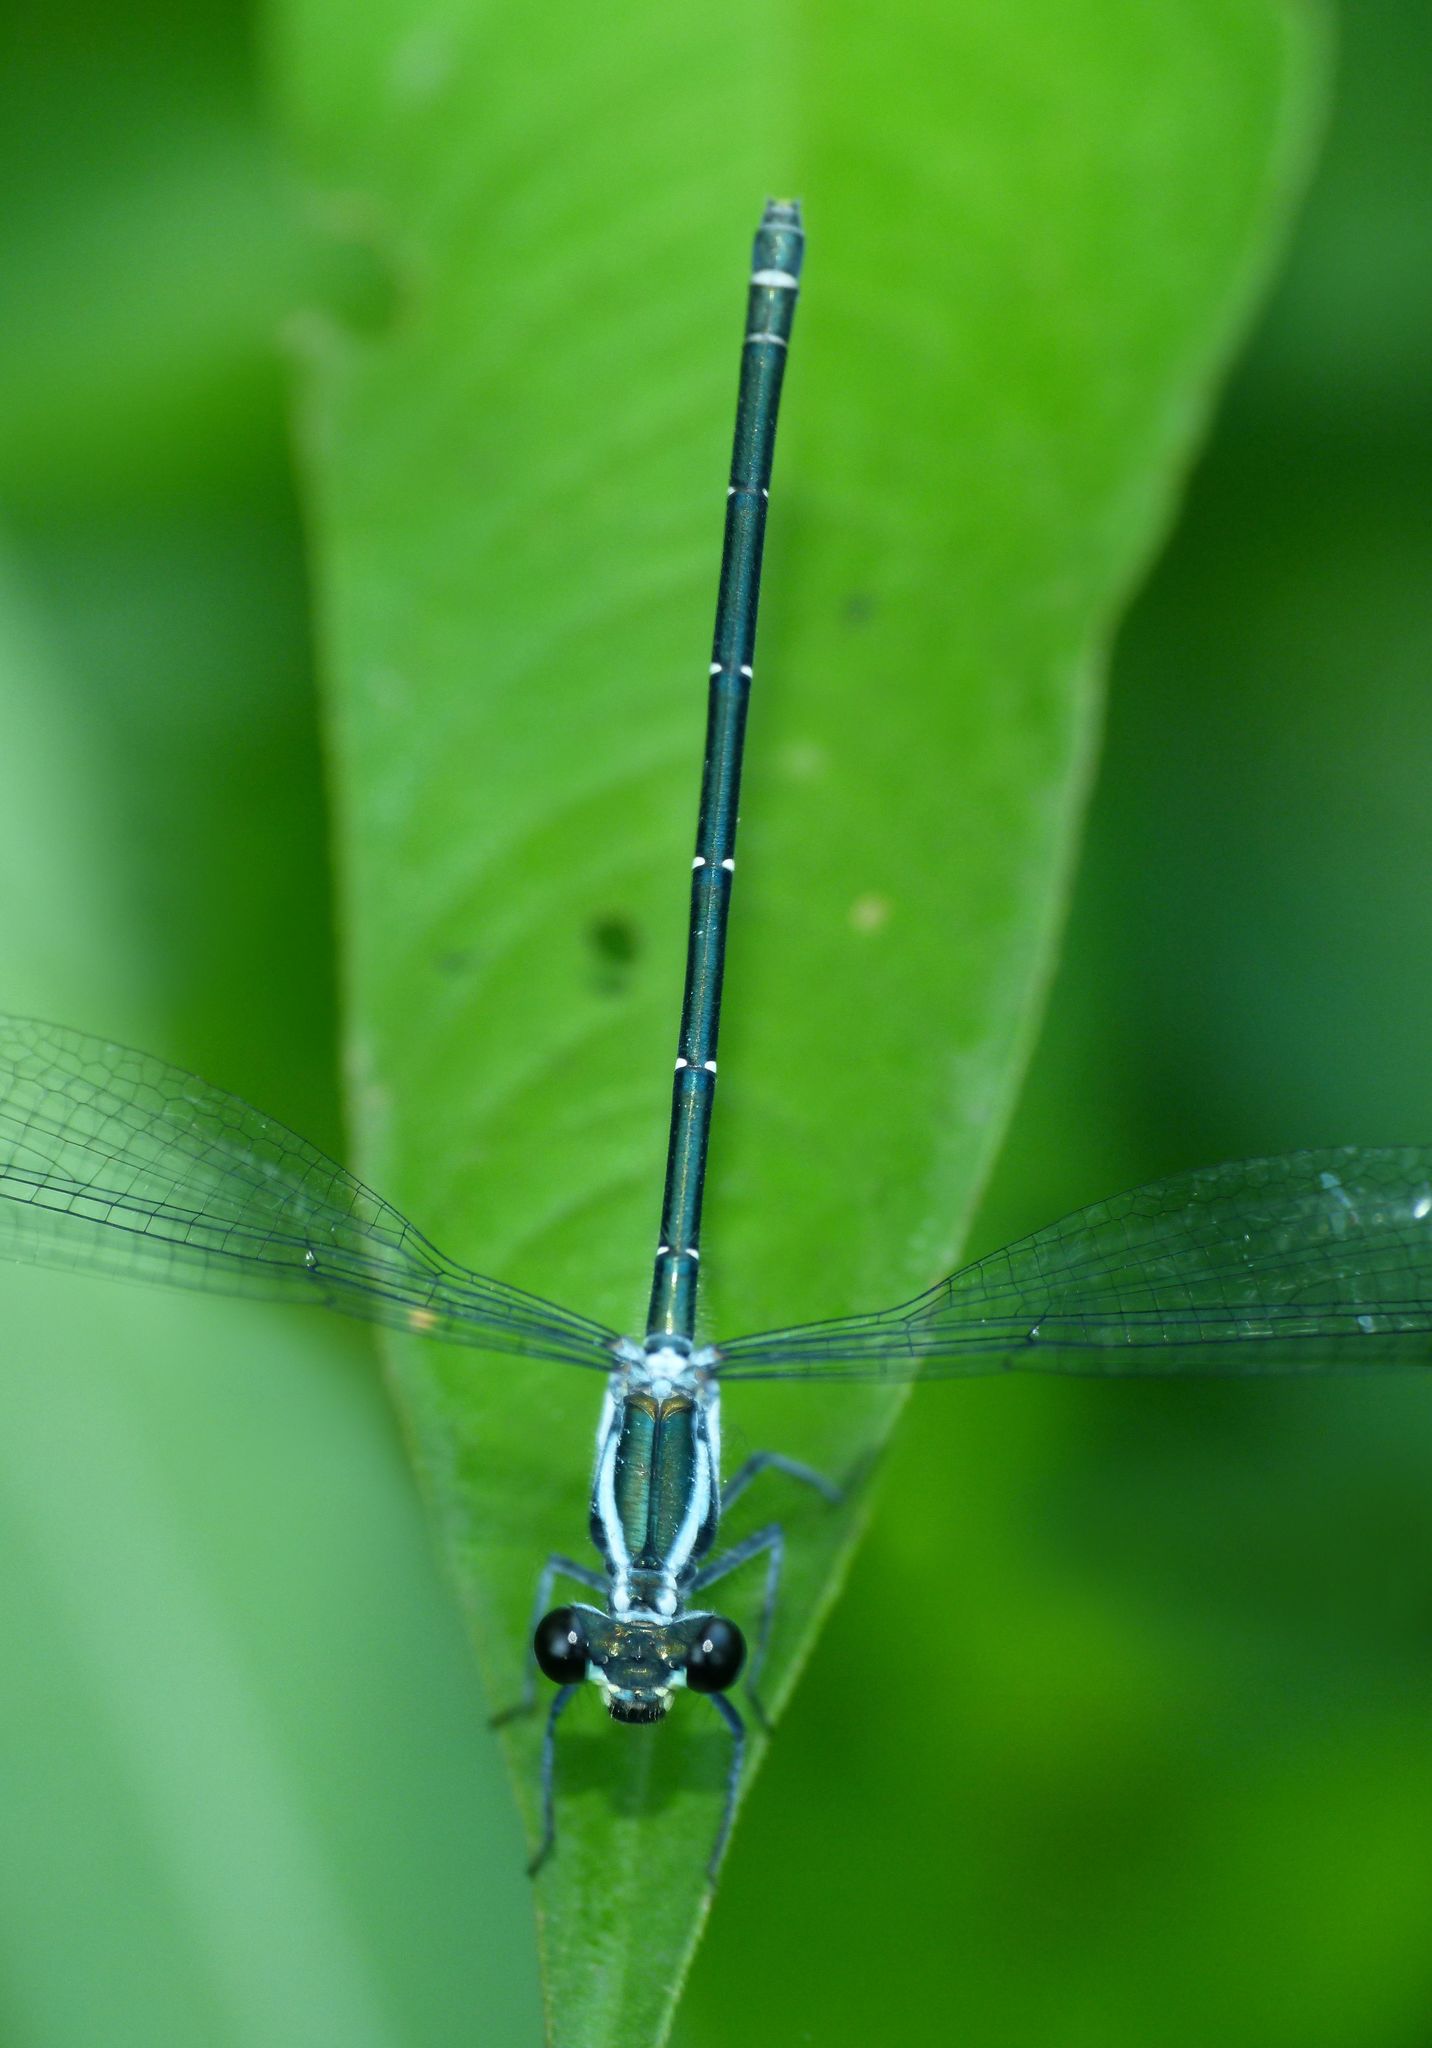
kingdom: Animalia
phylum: Arthropoda
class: Insecta
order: Odonata
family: Argiolestidae
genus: Austroargiolestes
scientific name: Austroargiolestes icteromelas
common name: Common flatwing
